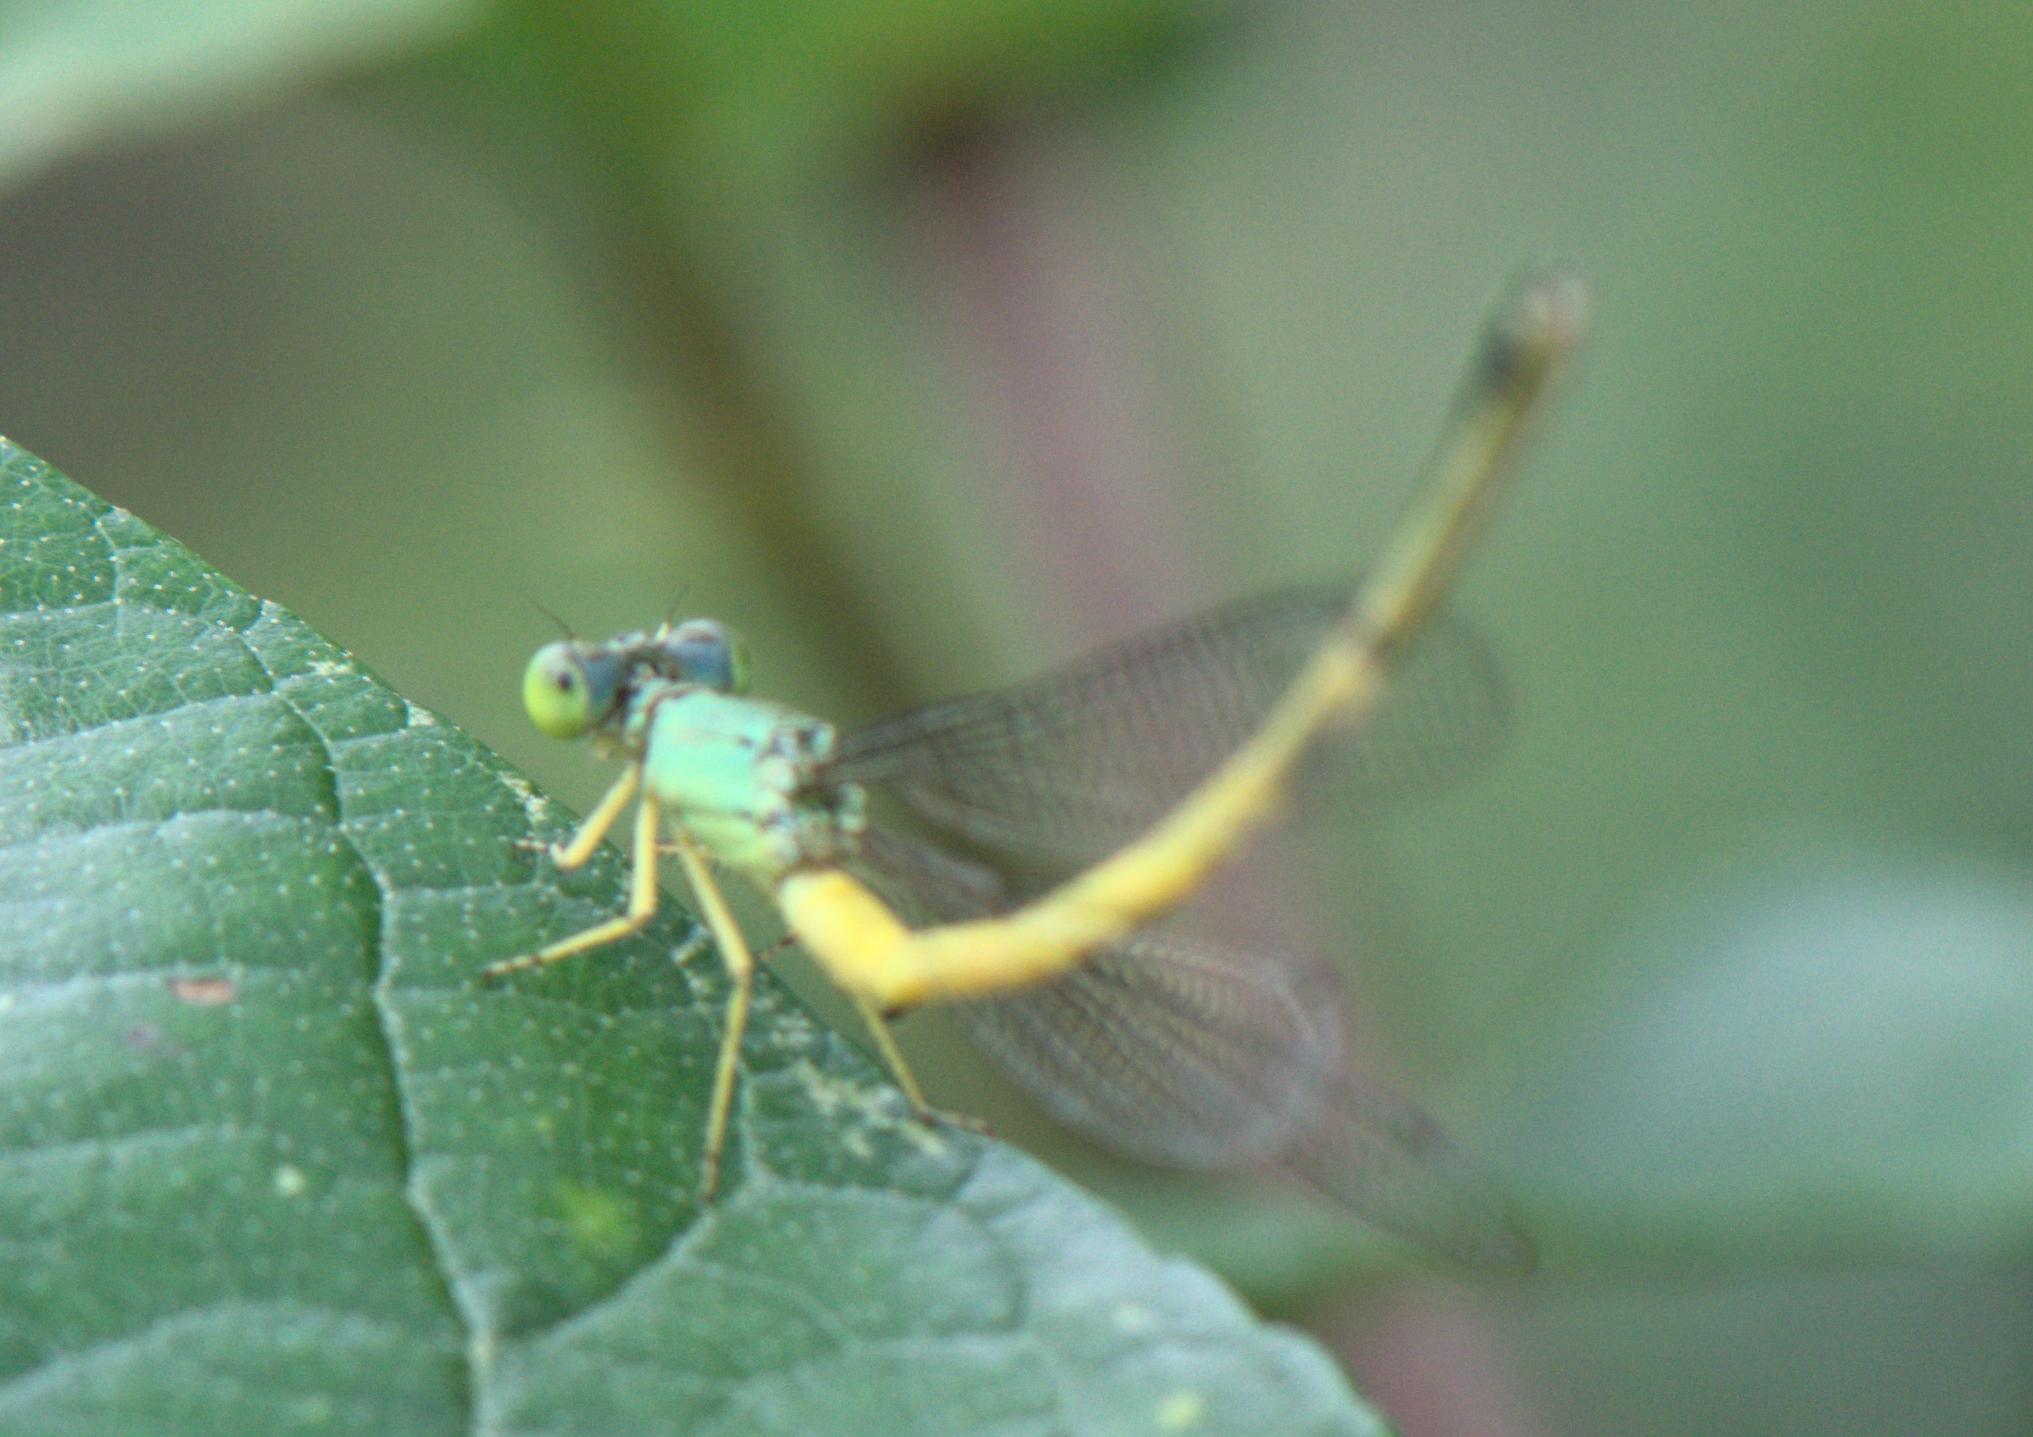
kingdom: Animalia
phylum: Arthropoda
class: Insecta
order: Odonata
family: Coenagrionidae
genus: Ceriagrion
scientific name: Ceriagrion fallax
